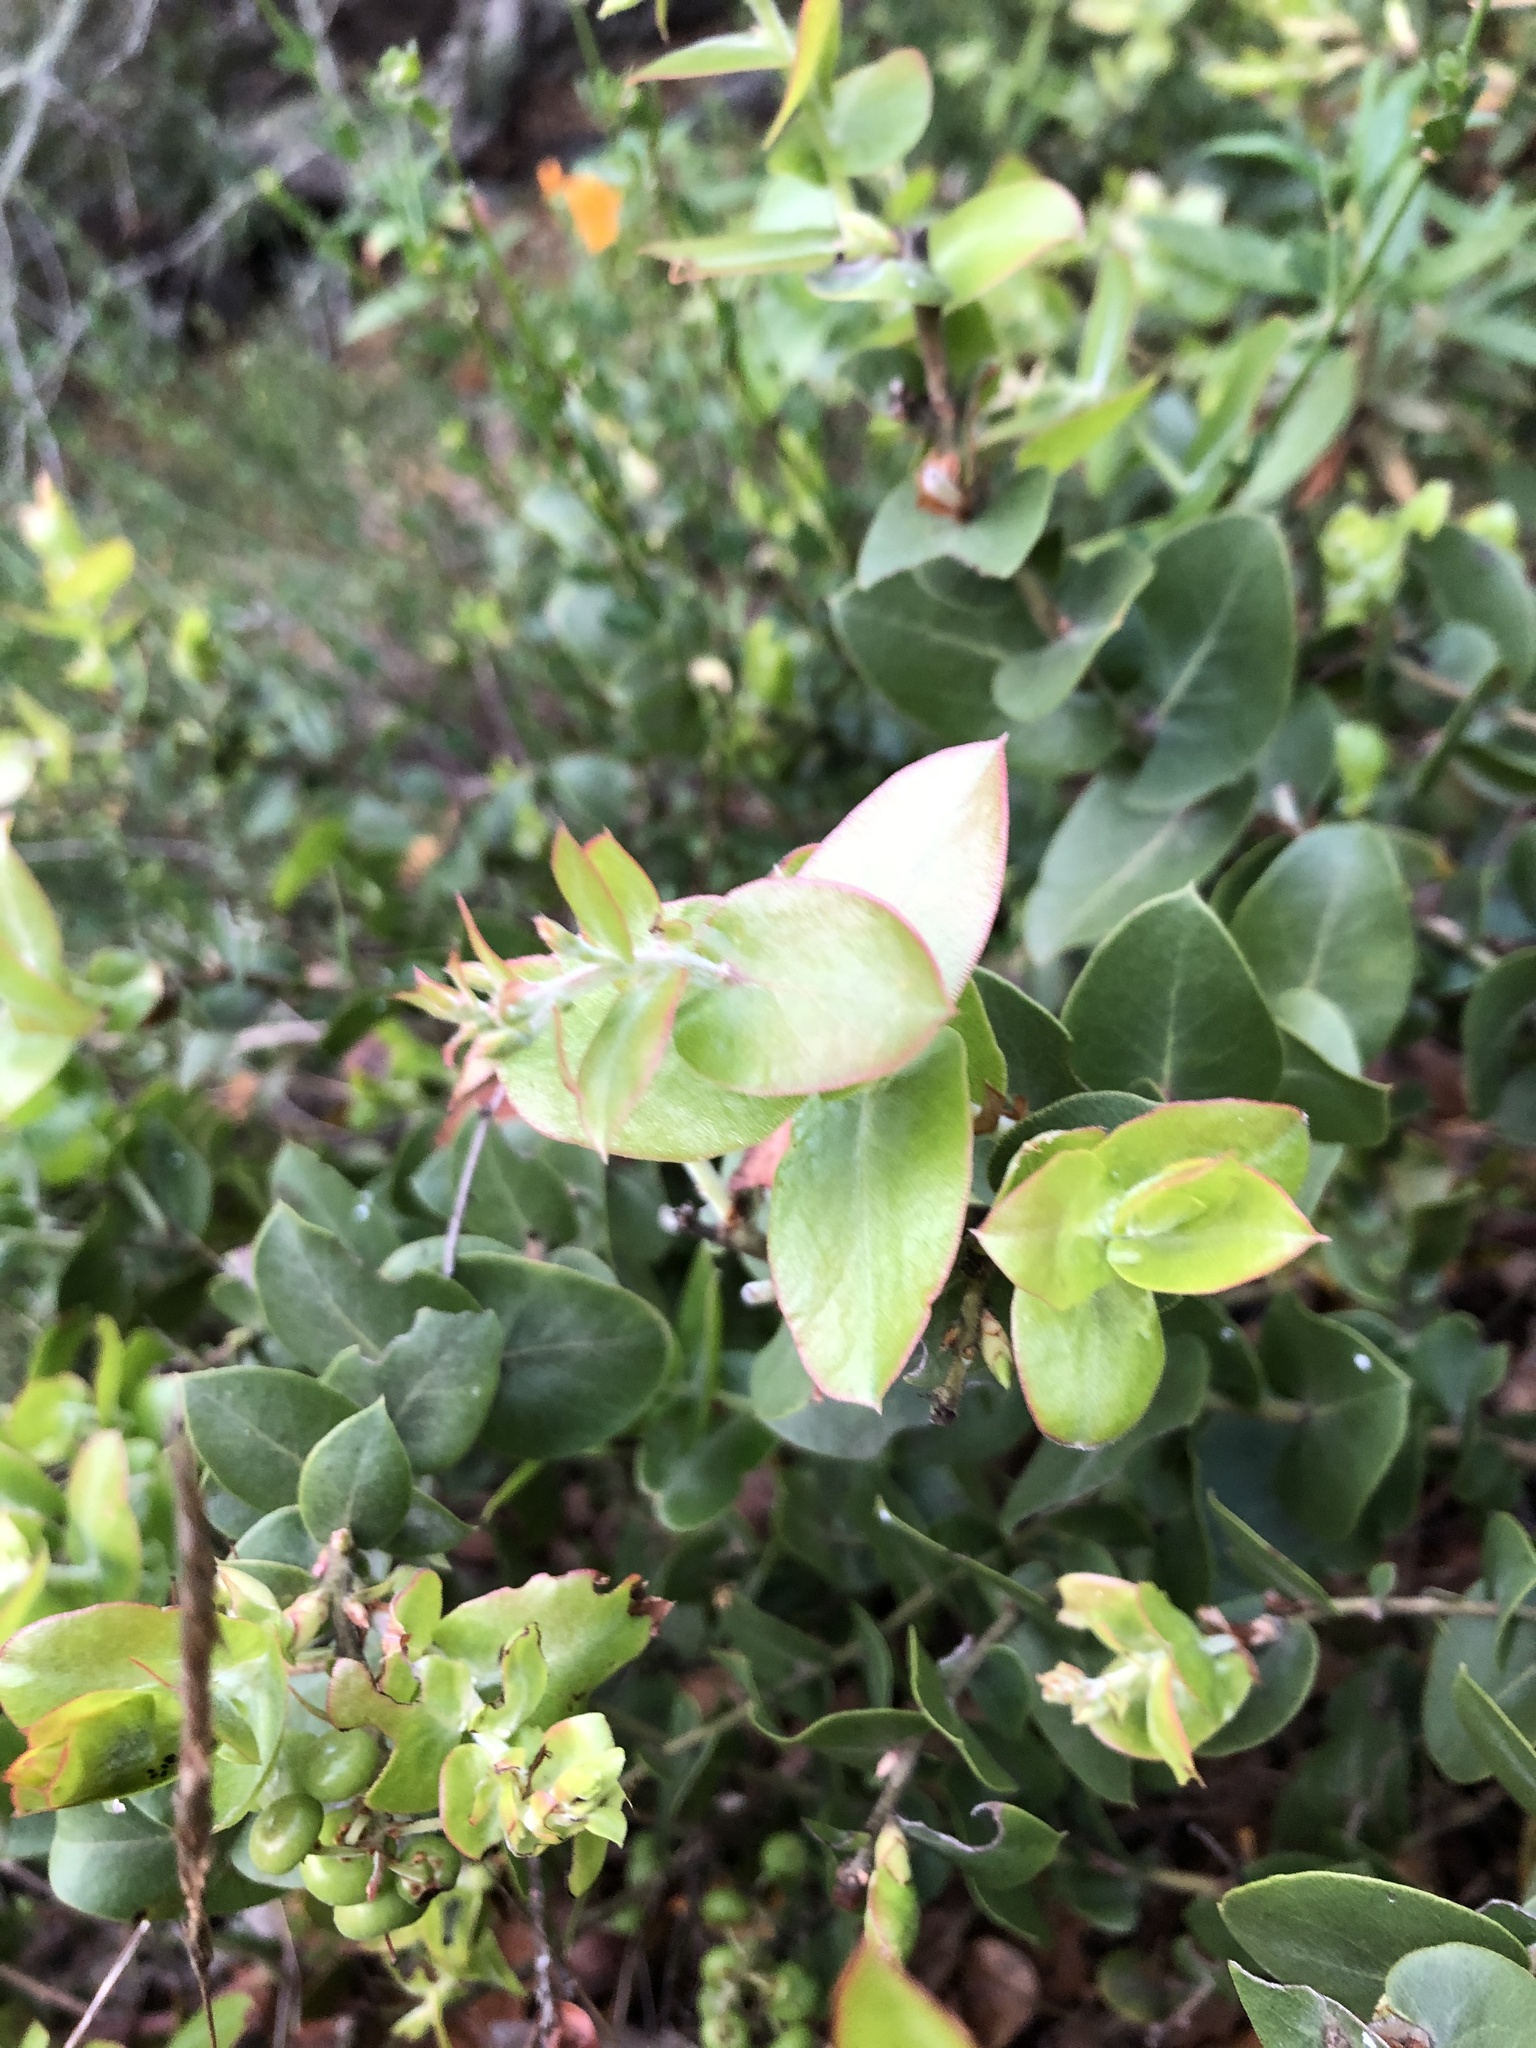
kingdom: Plantae
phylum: Tracheophyta
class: Magnoliopsida
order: Ericales
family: Ericaceae
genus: Arctostaphylos
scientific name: Arctostaphylos osoensis
